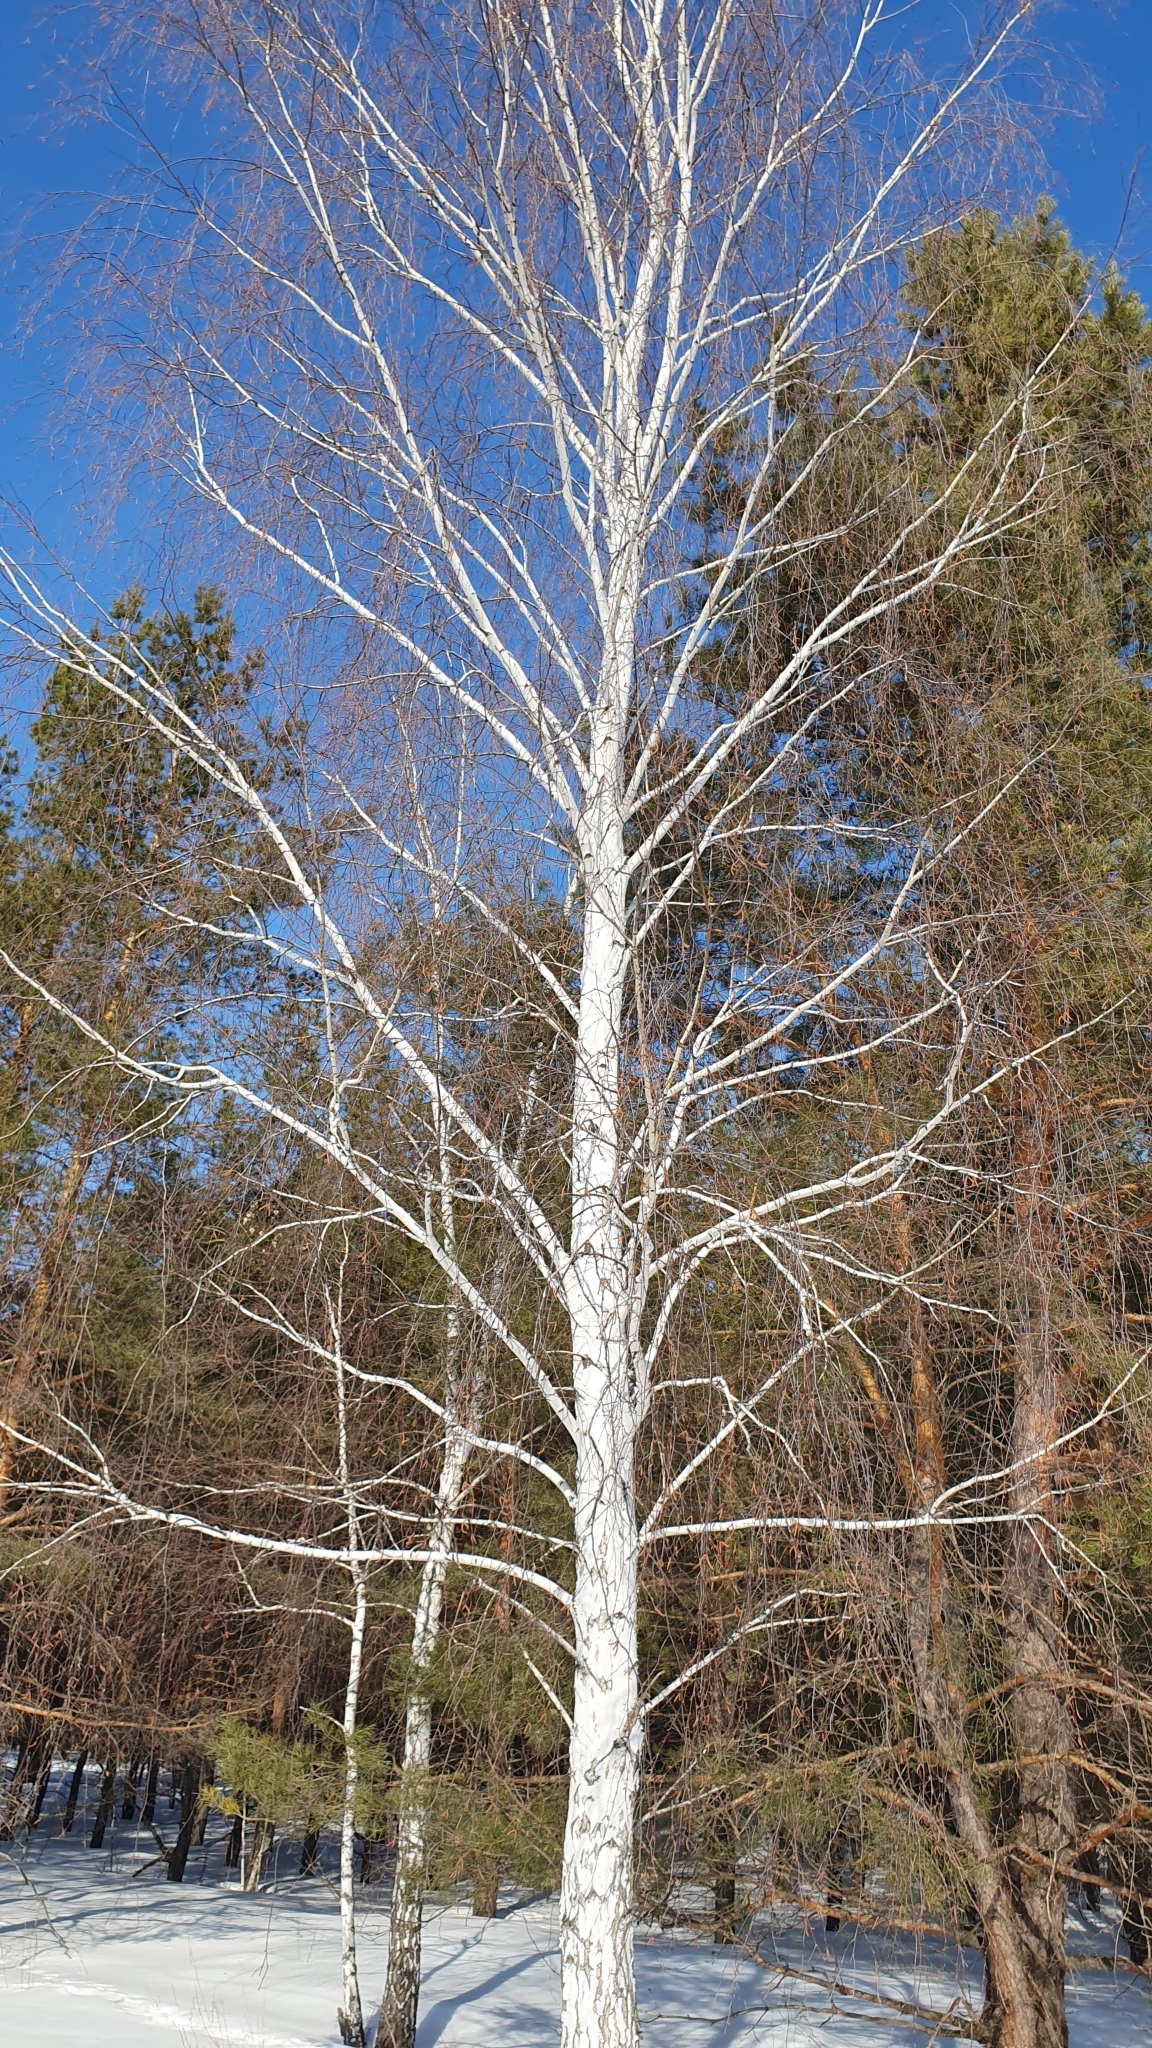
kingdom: Plantae
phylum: Tracheophyta
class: Magnoliopsida
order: Fagales
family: Betulaceae
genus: Betula
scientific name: Betula pendula
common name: Silver birch
